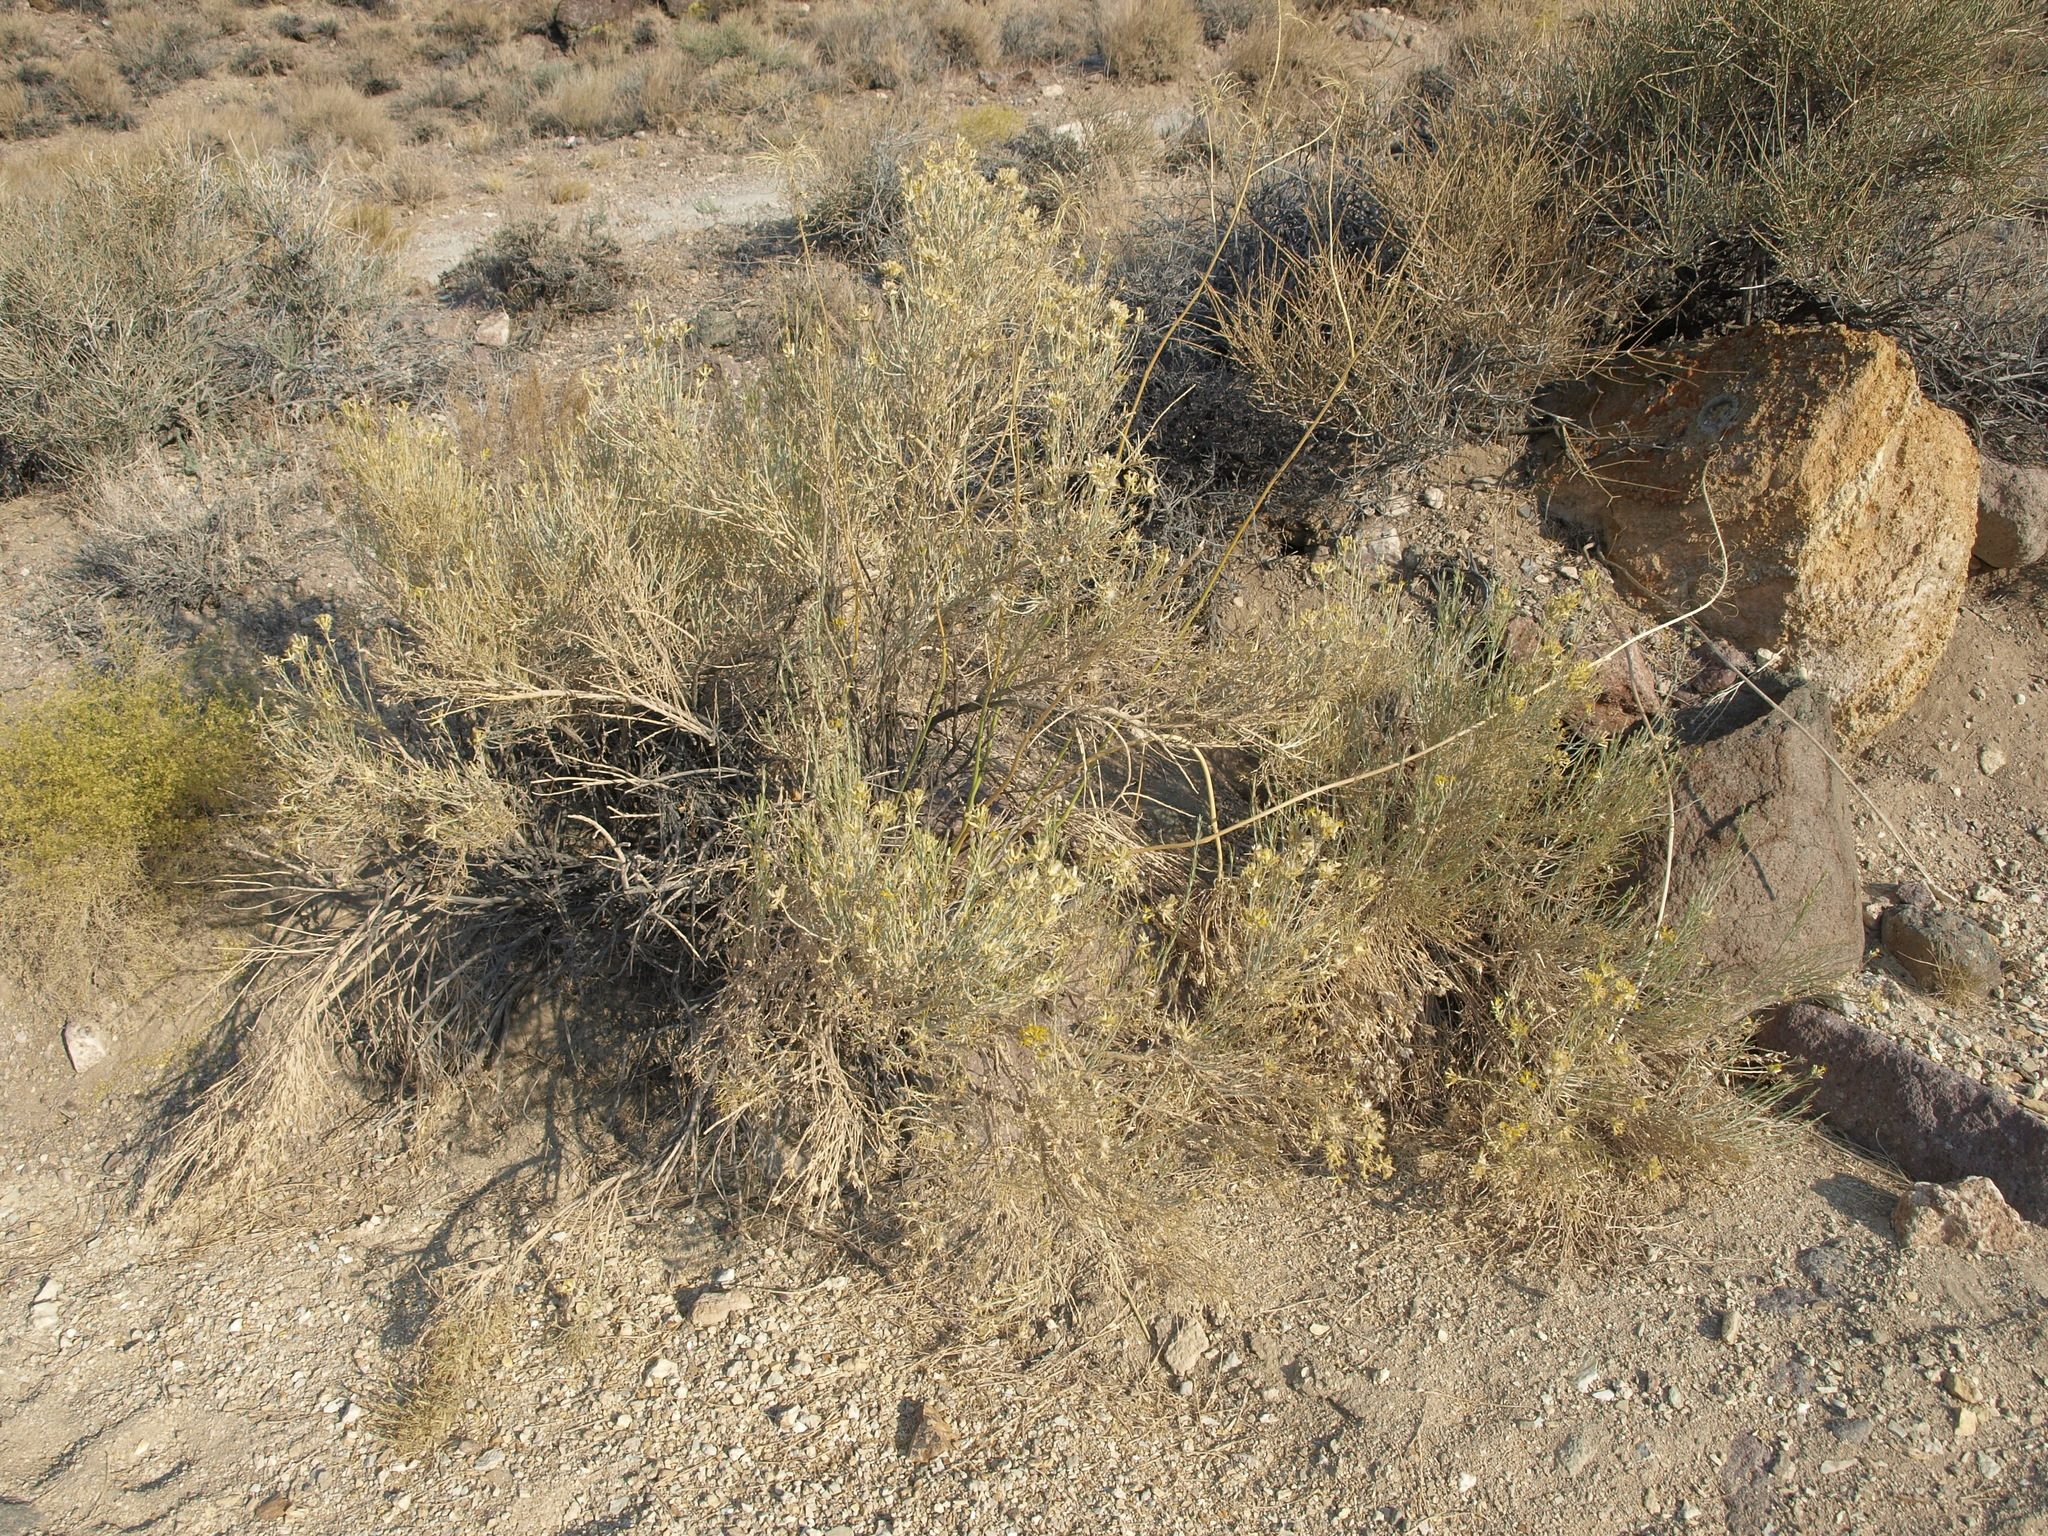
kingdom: Plantae
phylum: Tracheophyta
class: Magnoliopsida
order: Asterales
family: Asteraceae
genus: Lepidospartum
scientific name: Lepidospartum latisquamum
